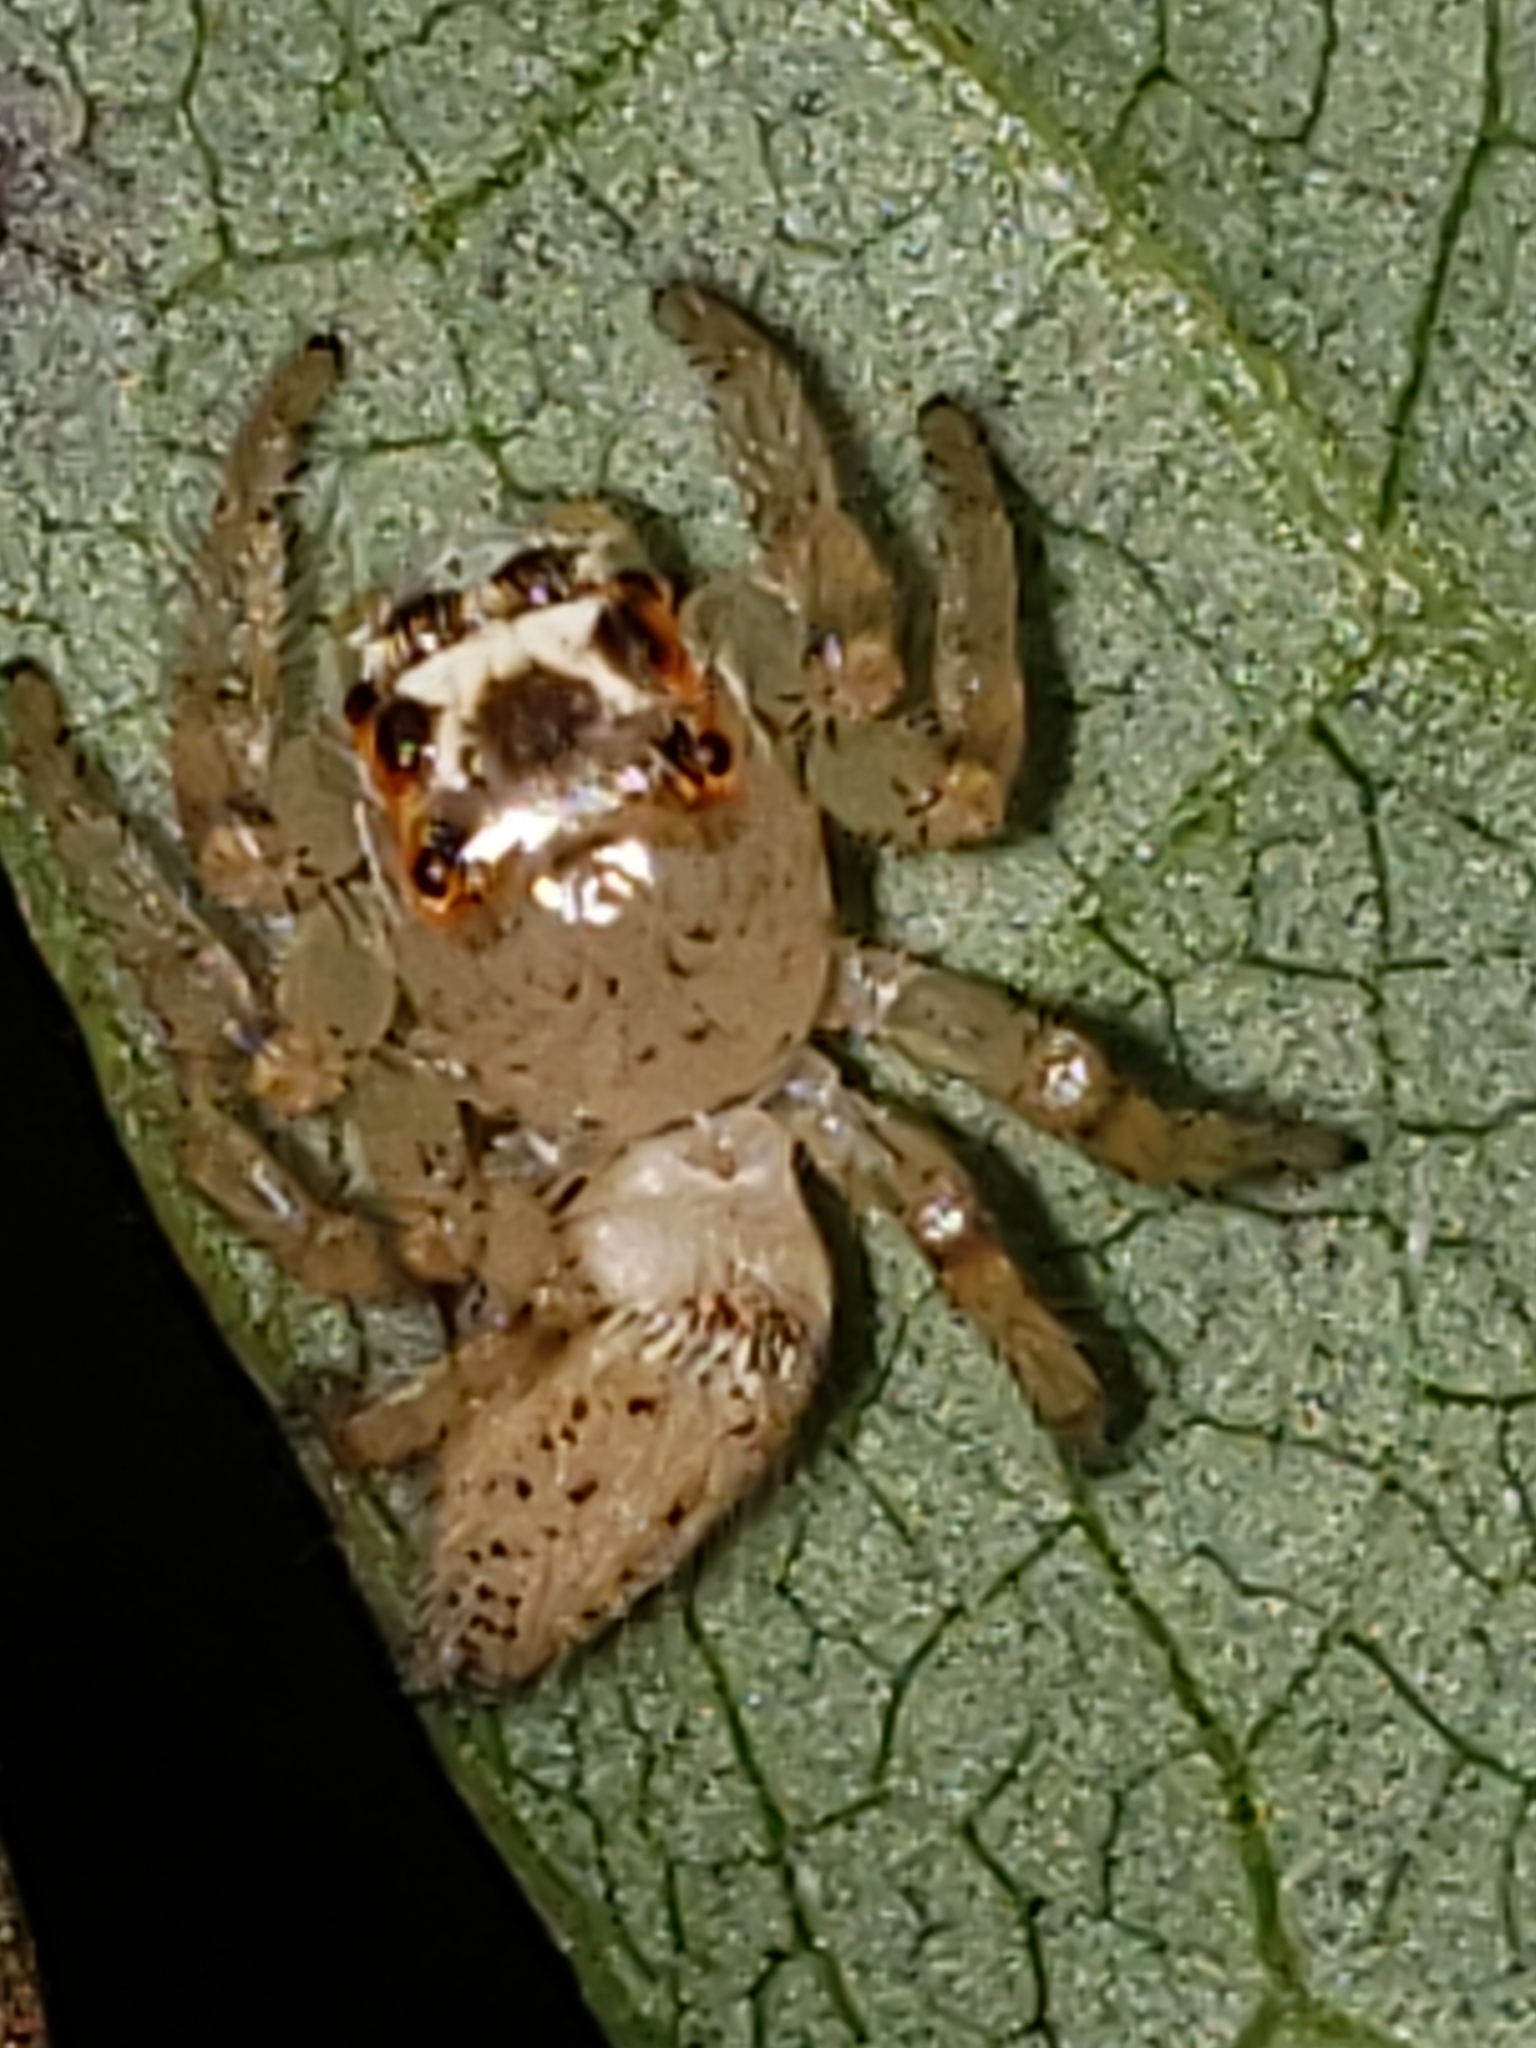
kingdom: Animalia
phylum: Arthropoda
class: Arachnida
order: Araneae
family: Salticidae
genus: Colonus
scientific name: Colonus sylvanus
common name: Jumping spiders
